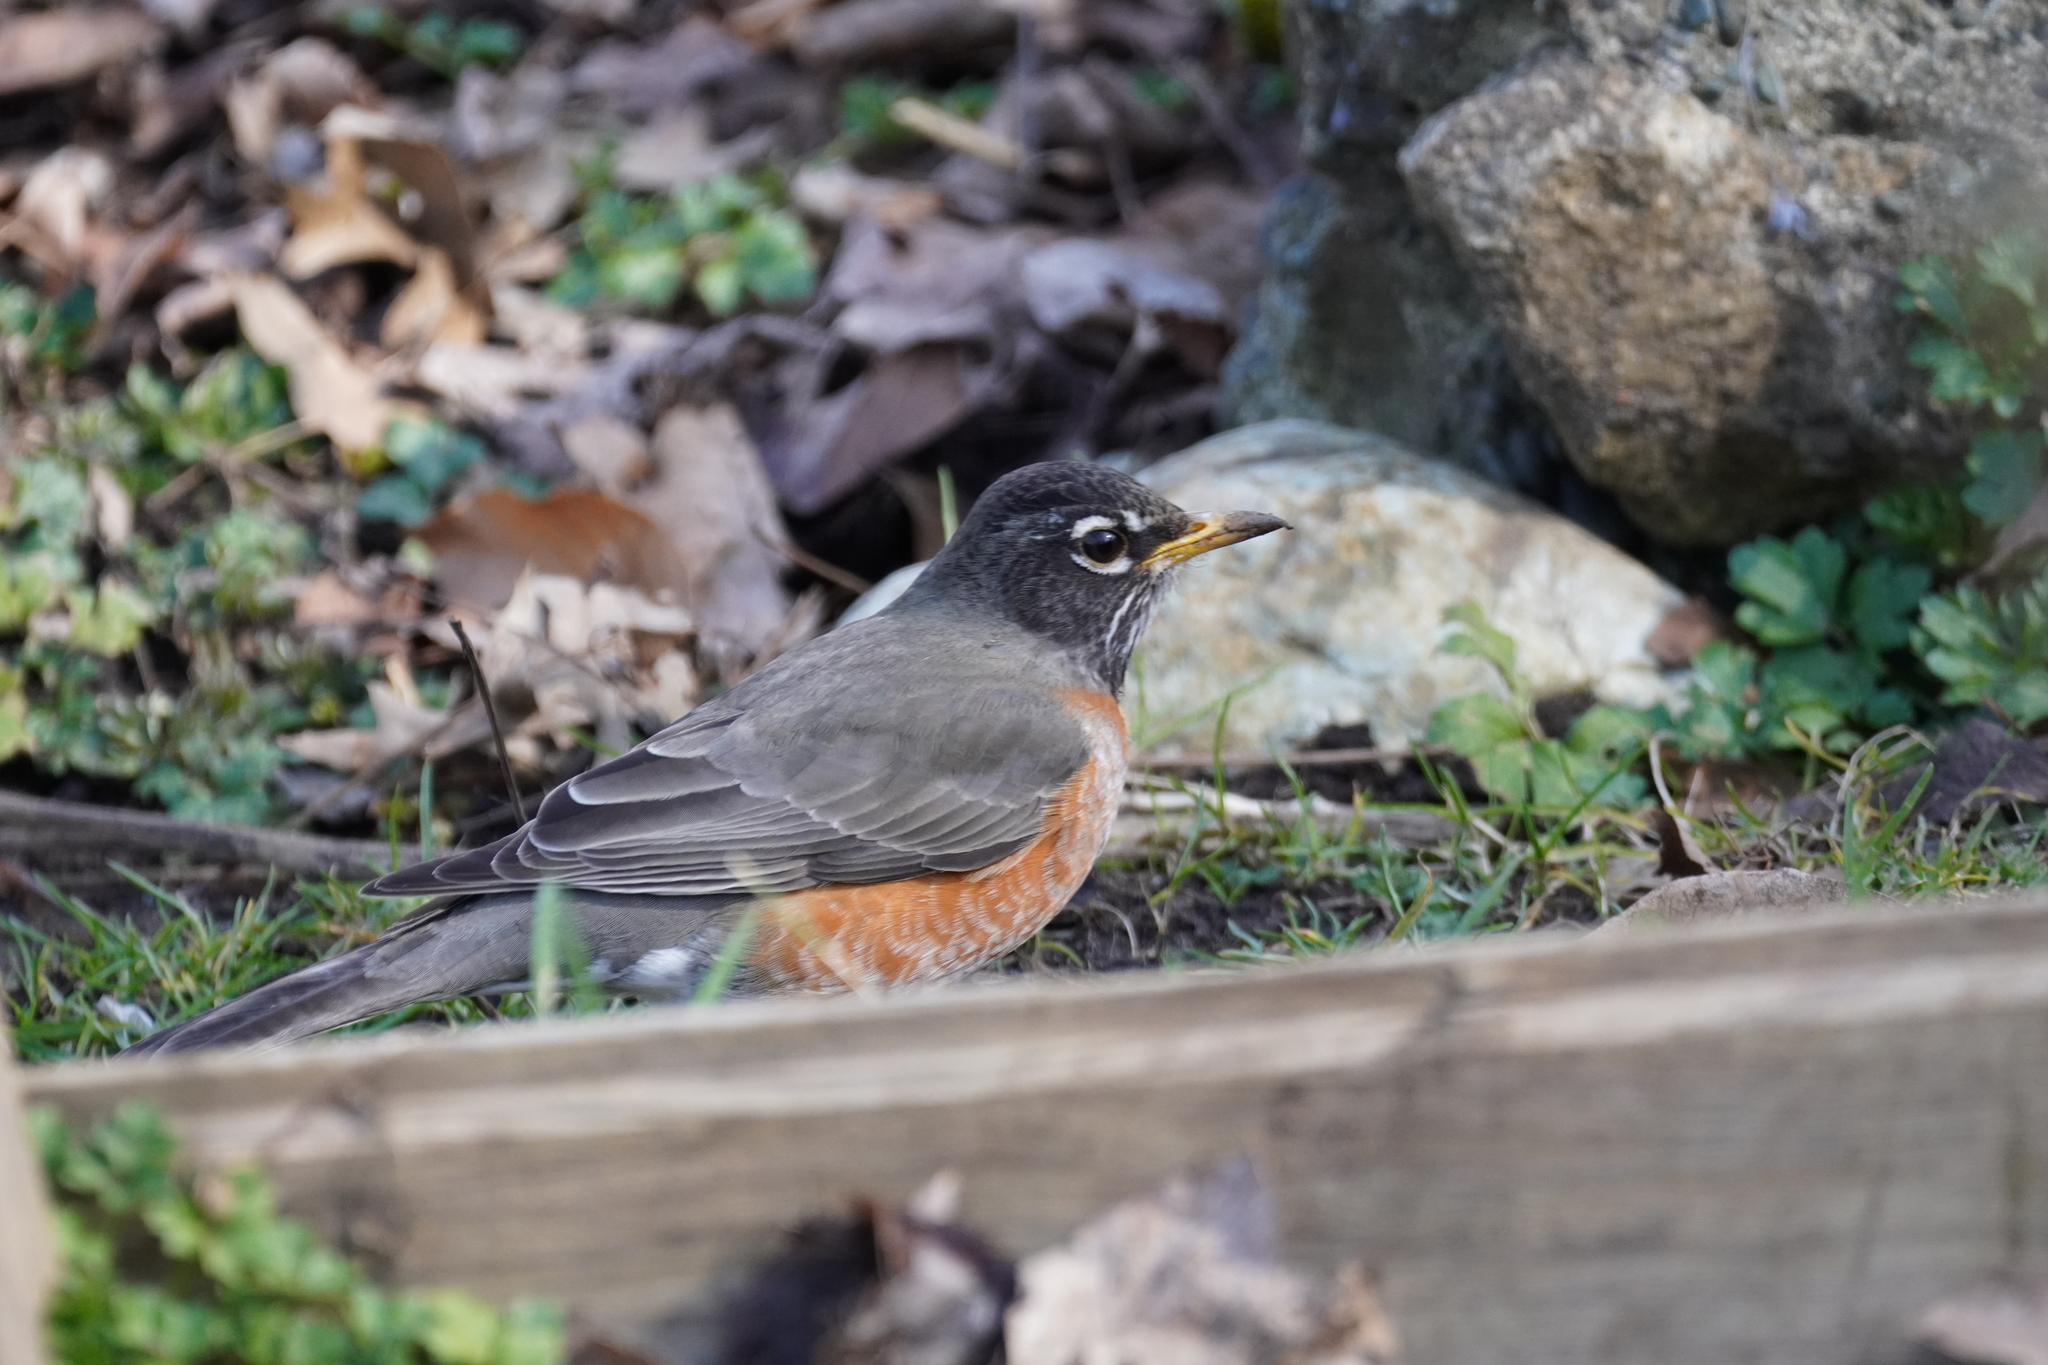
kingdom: Animalia
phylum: Chordata
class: Aves
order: Passeriformes
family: Turdidae
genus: Turdus
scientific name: Turdus migratorius
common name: American robin
